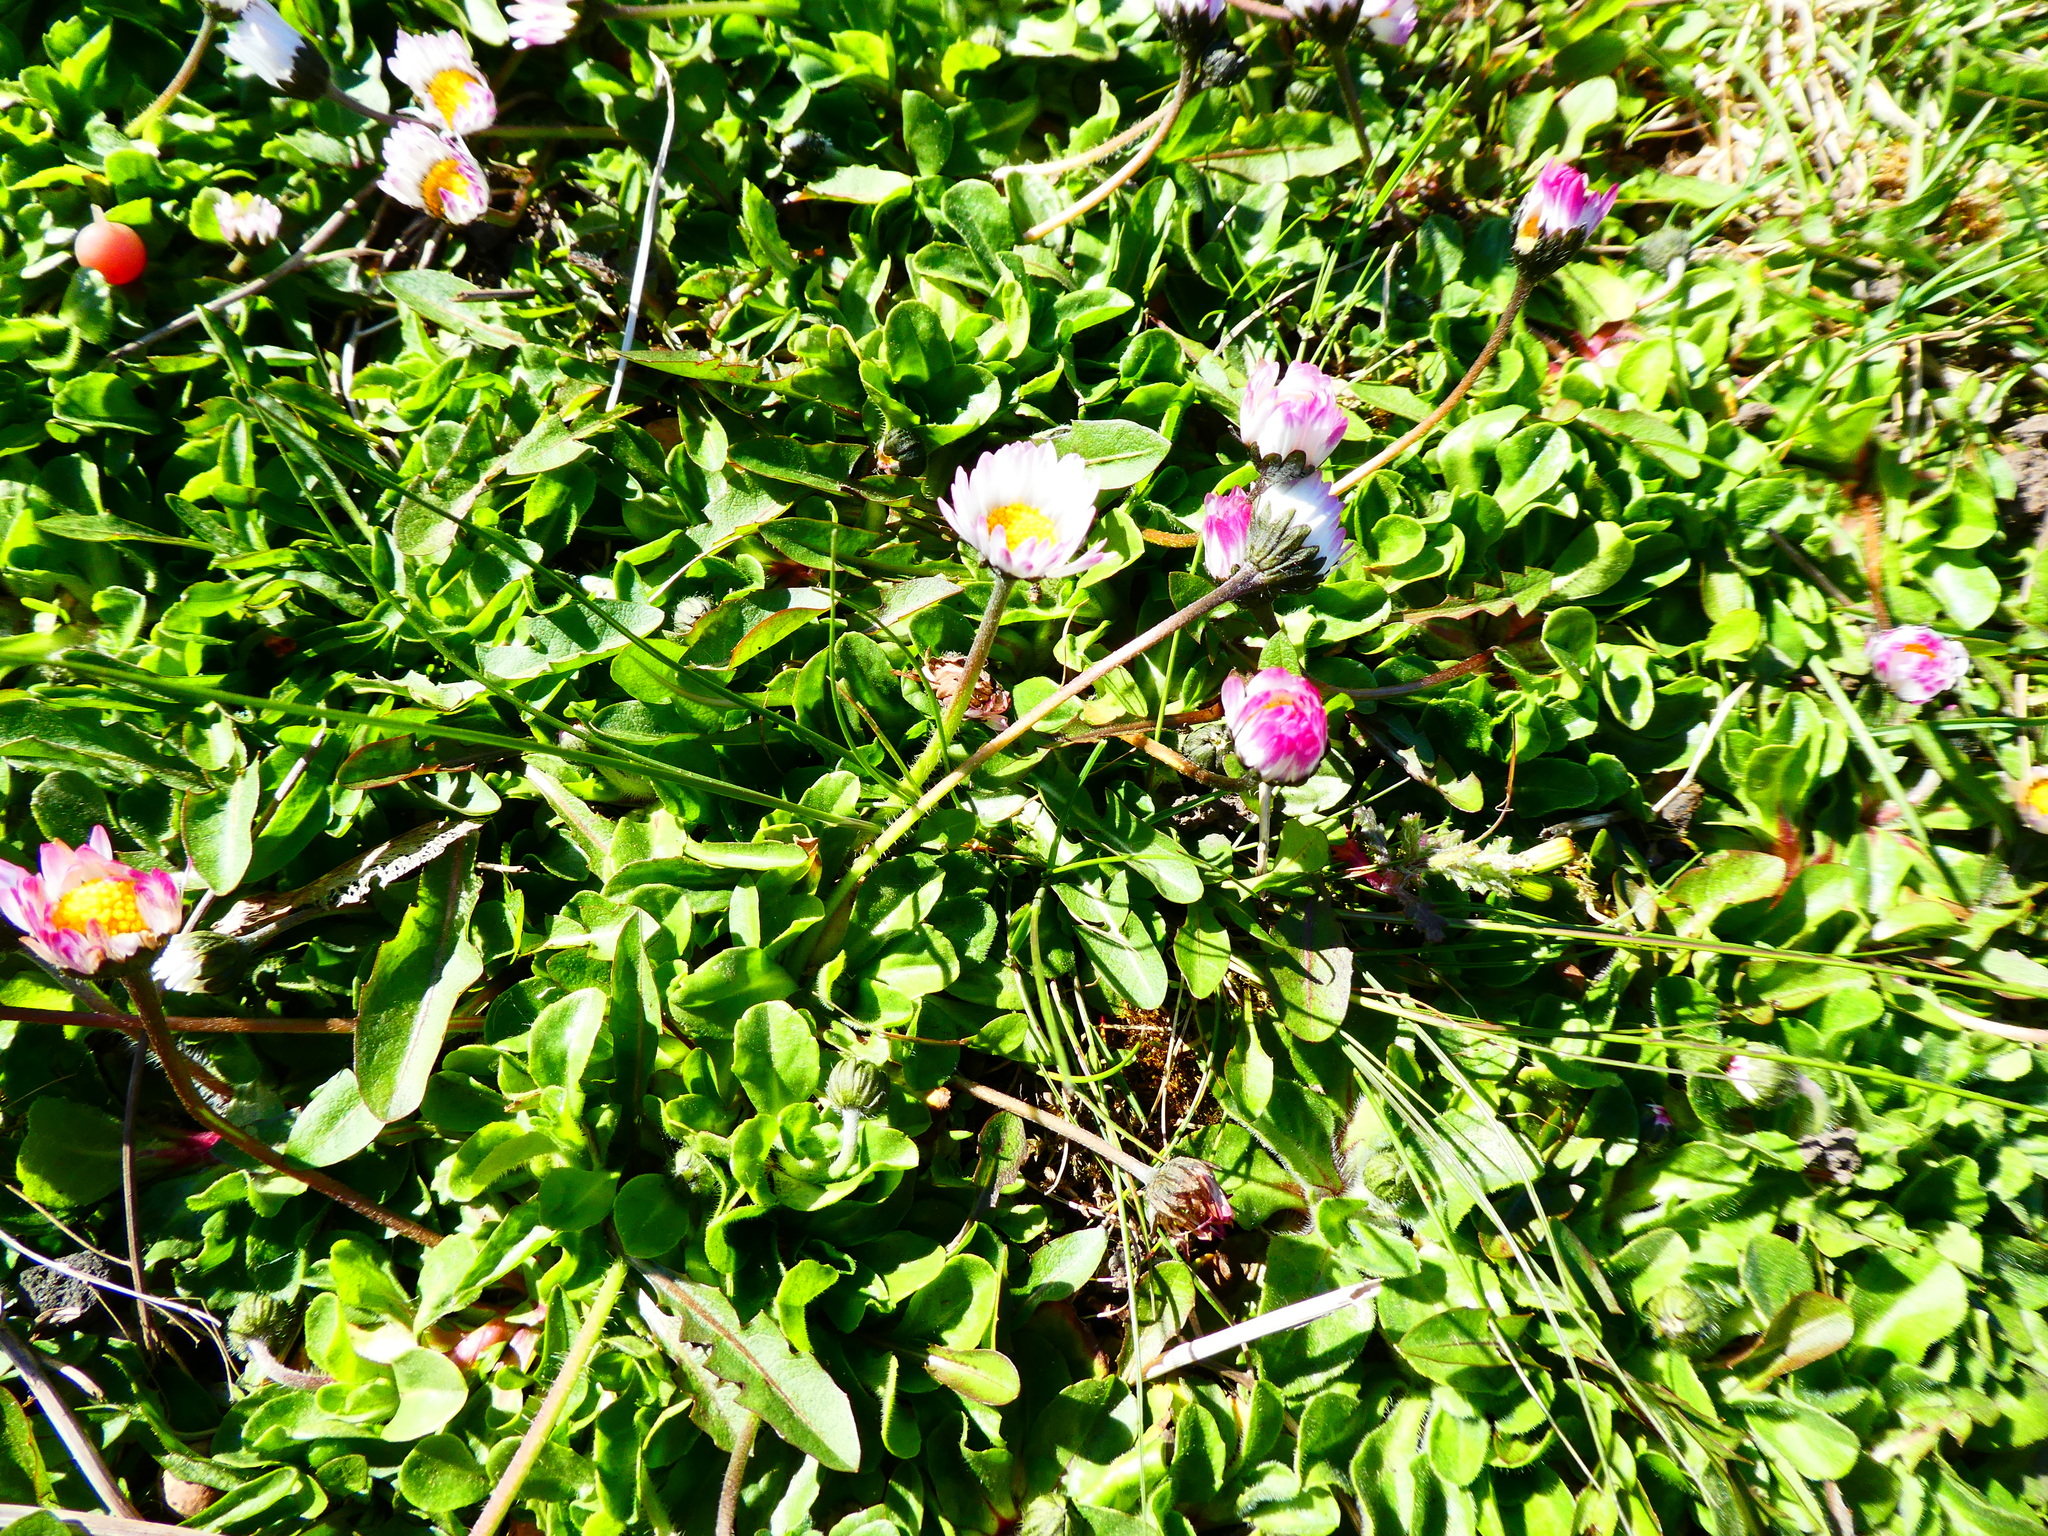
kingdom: Plantae
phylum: Tracheophyta
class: Magnoliopsida
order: Asterales
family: Asteraceae
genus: Bellis
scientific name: Bellis perennis
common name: Lawndaisy
